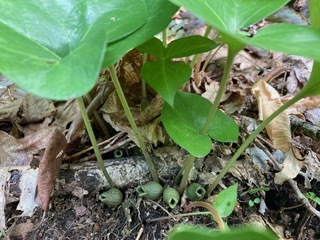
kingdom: Plantae
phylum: Tracheophyta
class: Magnoliopsida
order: Piperales
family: Aristolochiaceae
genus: Hexastylis
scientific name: Hexastylis arifolia
